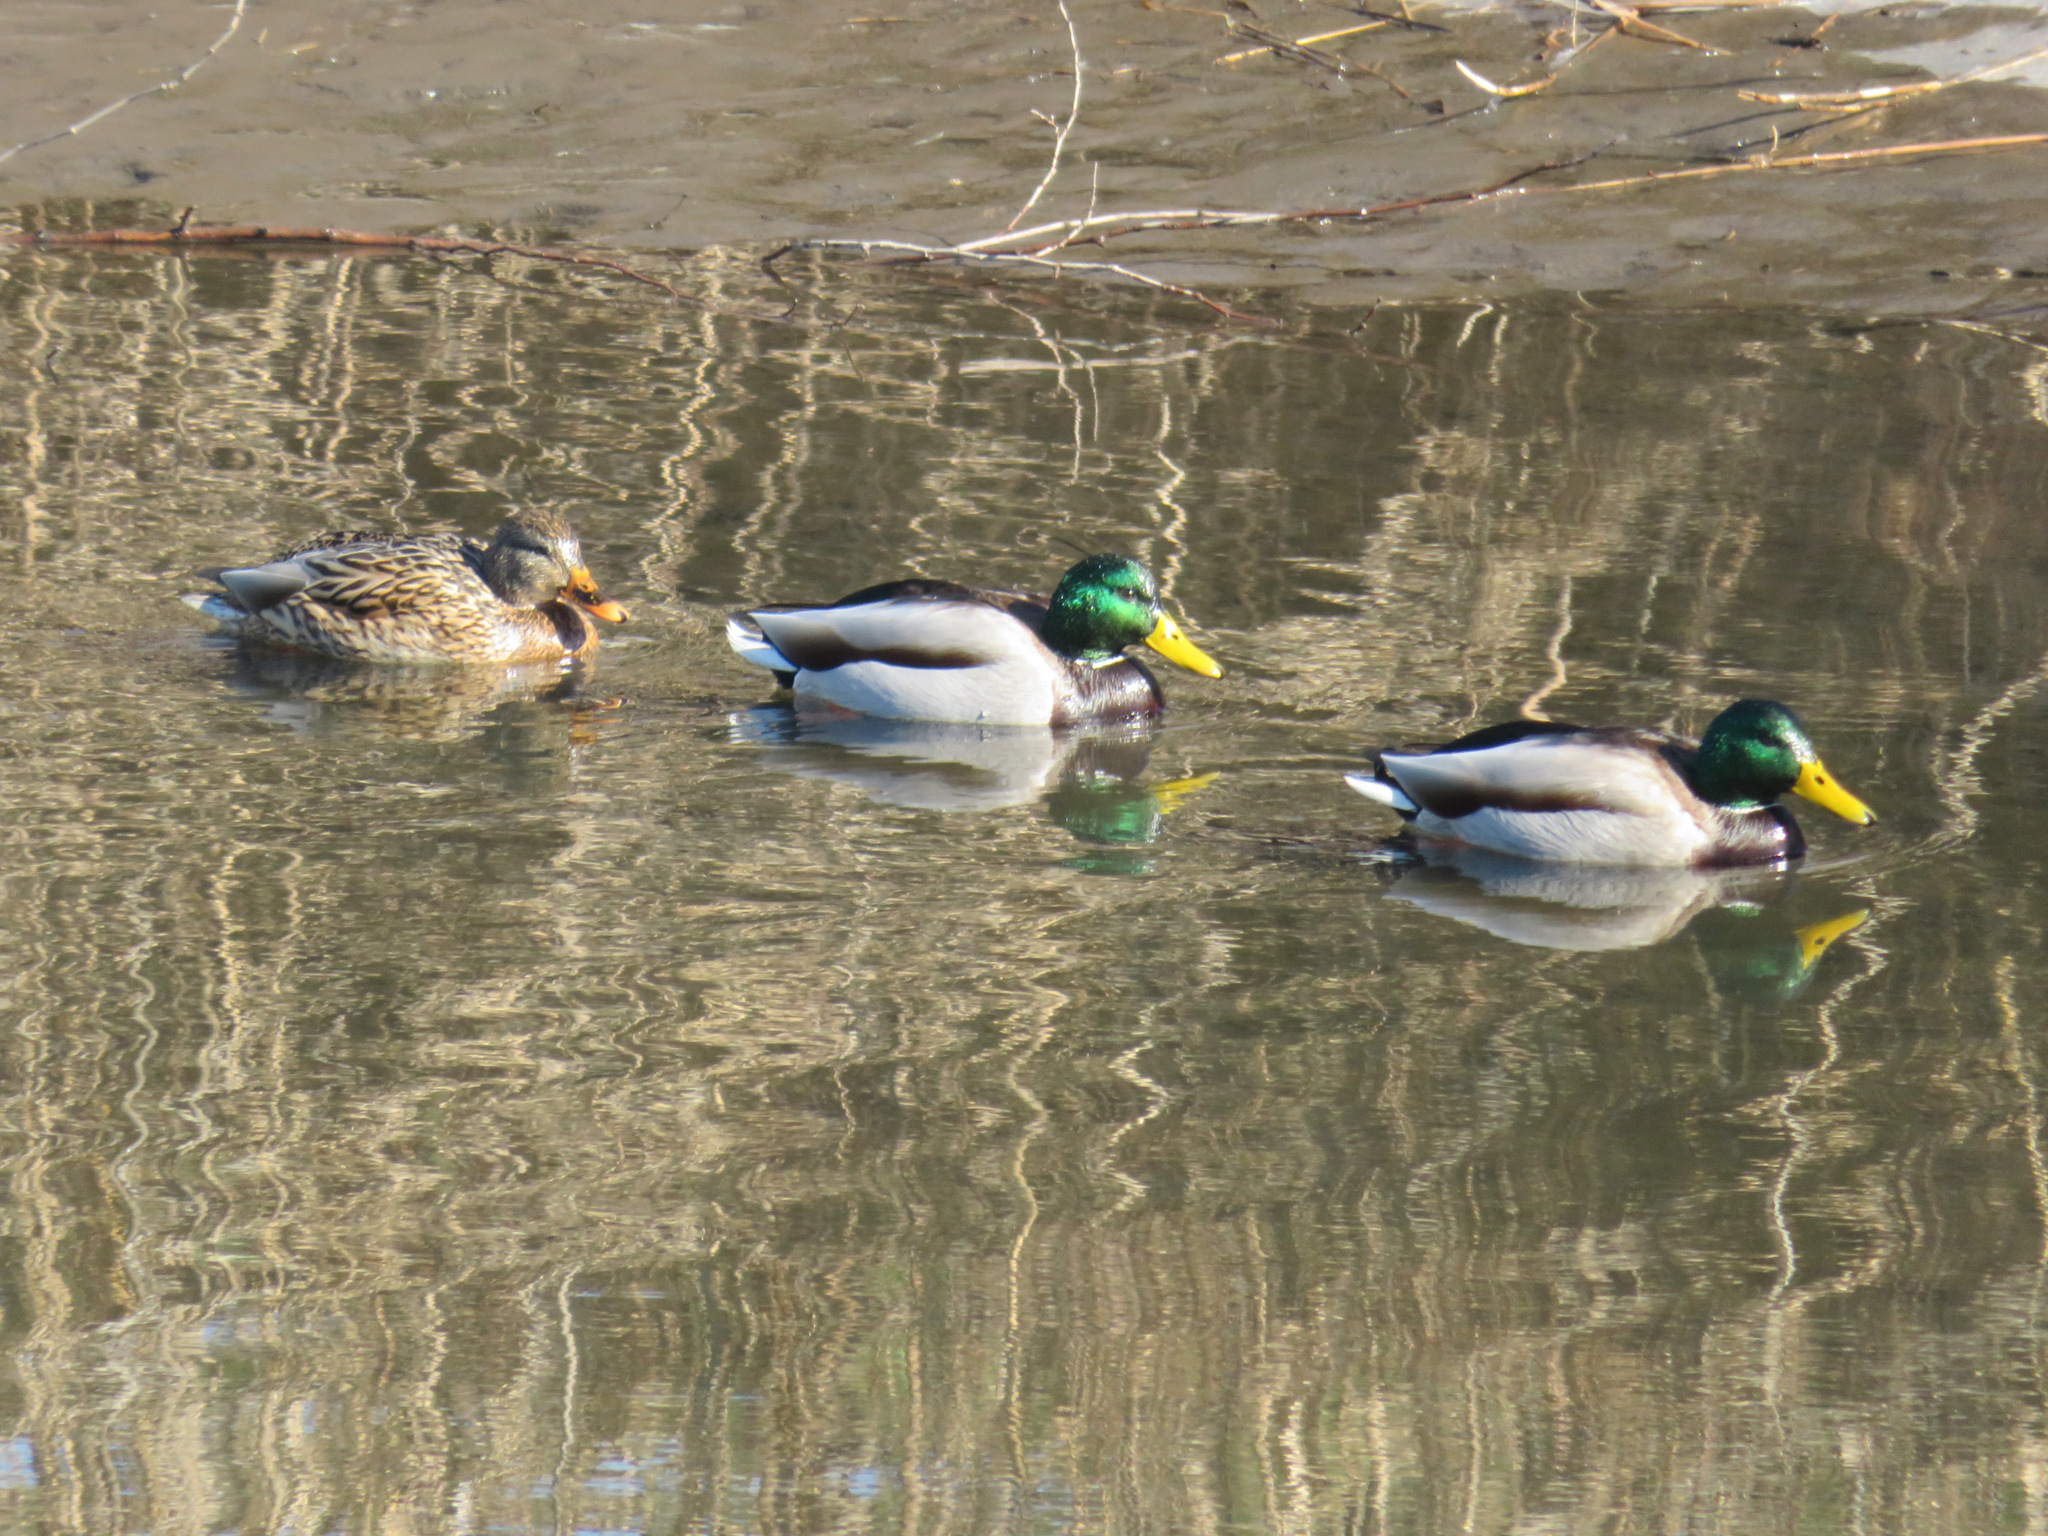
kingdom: Animalia
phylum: Chordata
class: Aves
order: Anseriformes
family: Anatidae
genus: Anas
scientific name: Anas platyrhynchos
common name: Mallard
